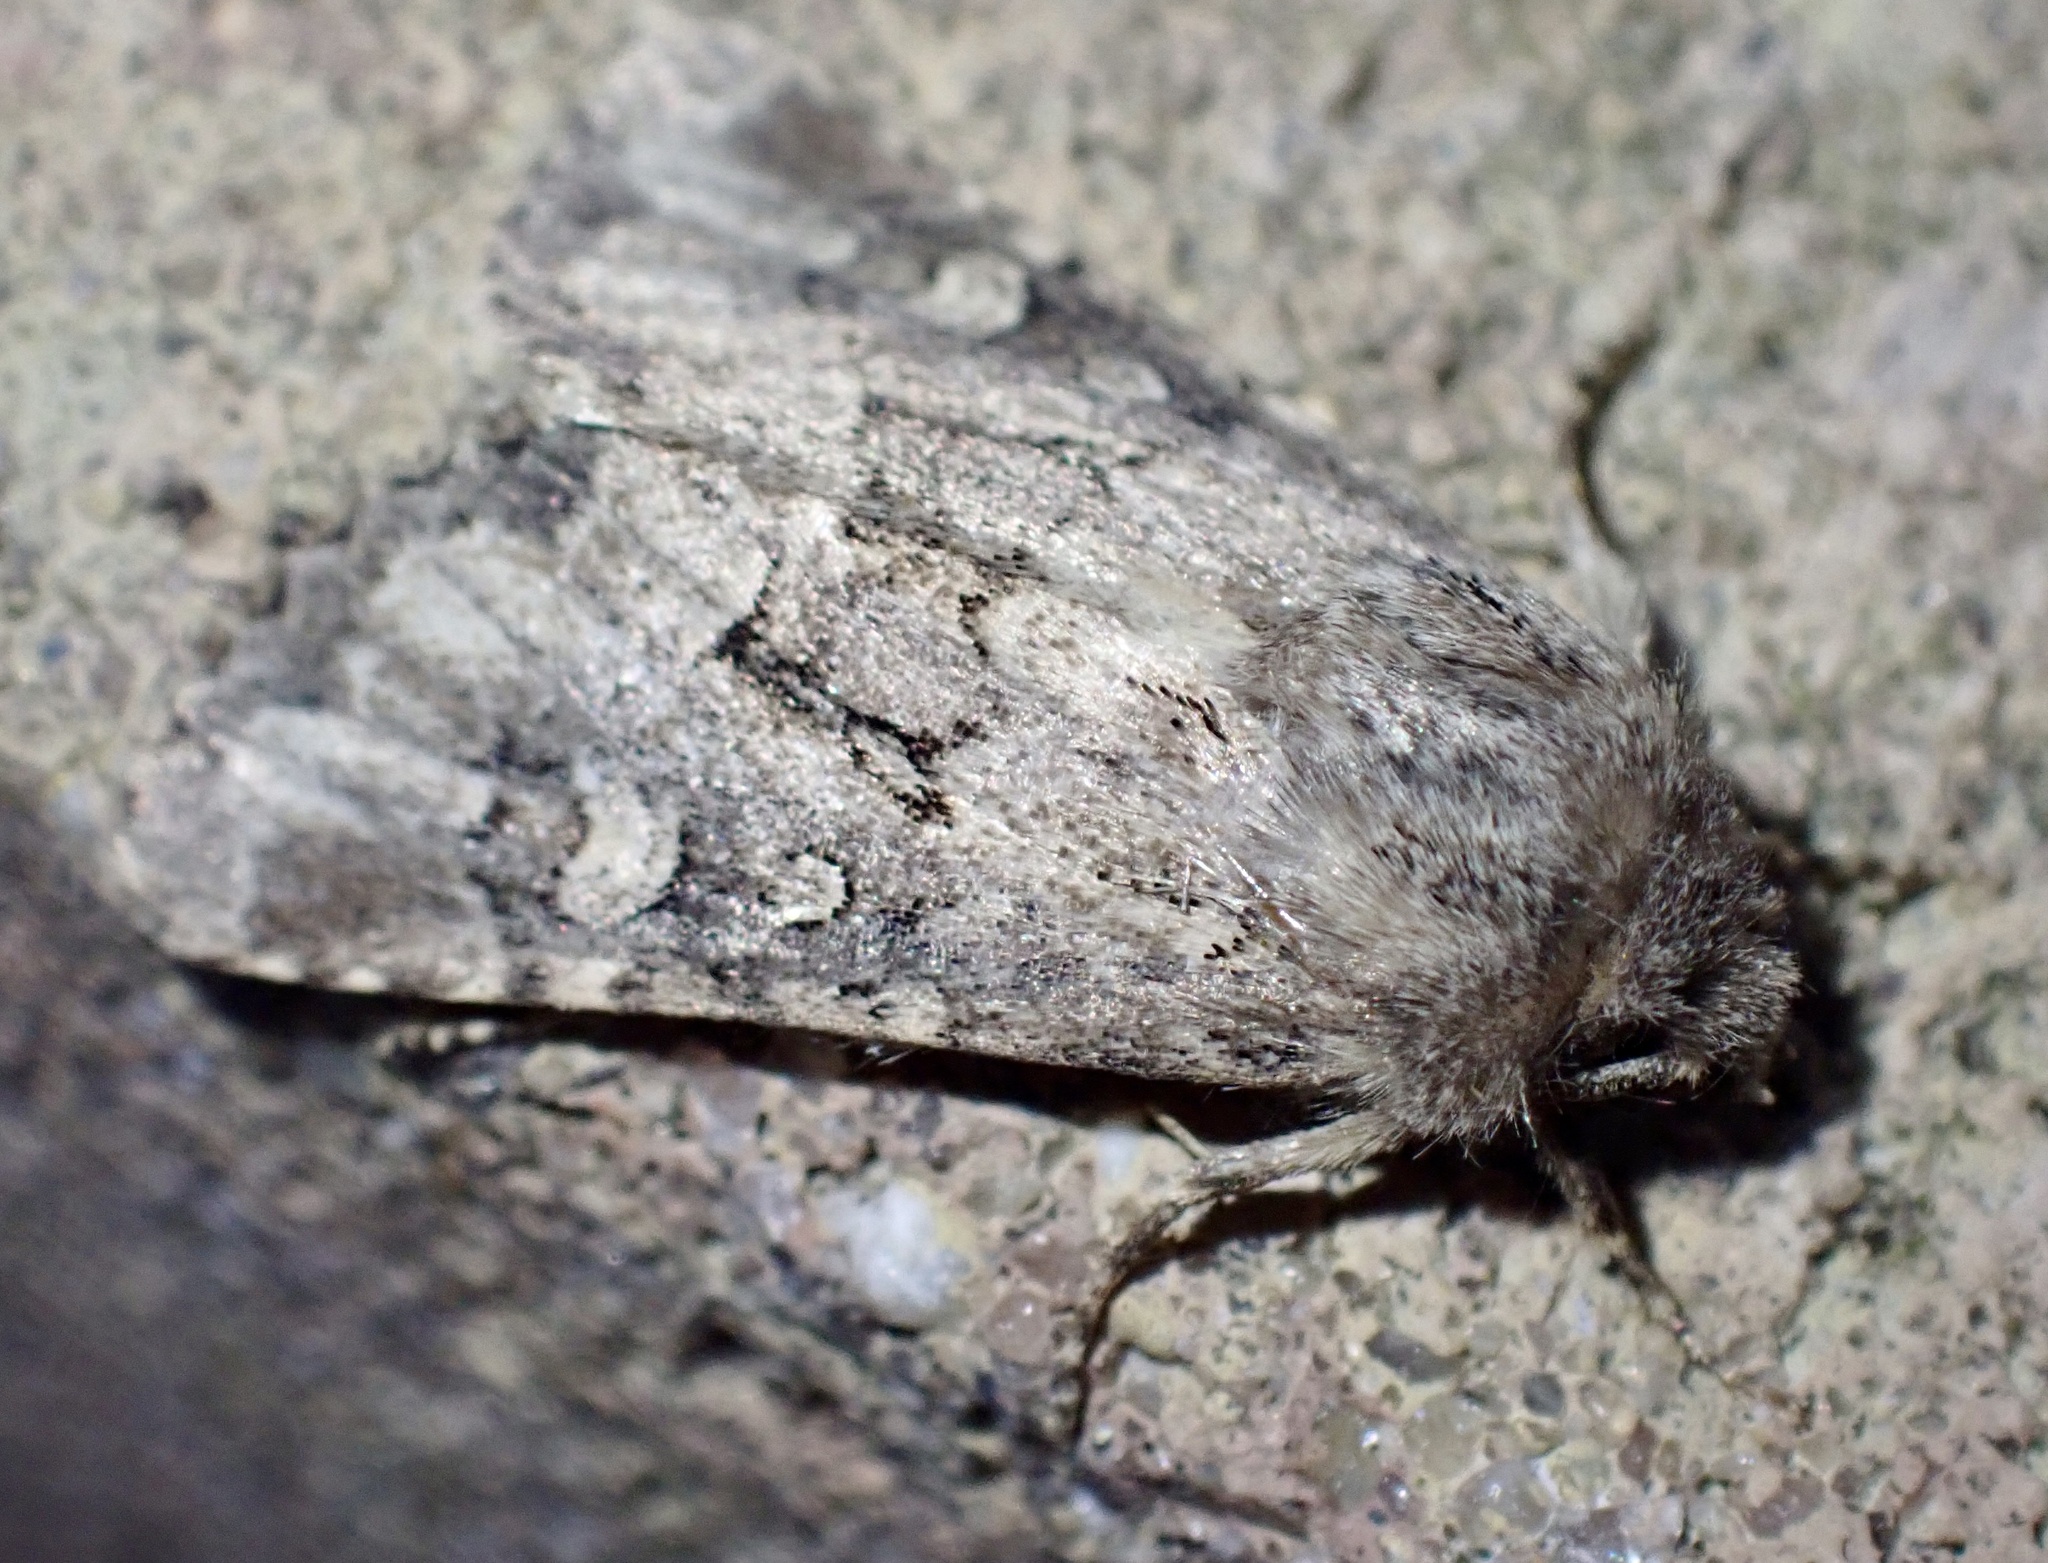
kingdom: Animalia
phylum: Arthropoda
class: Insecta
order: Lepidoptera
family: Noctuidae
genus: Luperina
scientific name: Luperina testacea
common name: Flounced rustic
